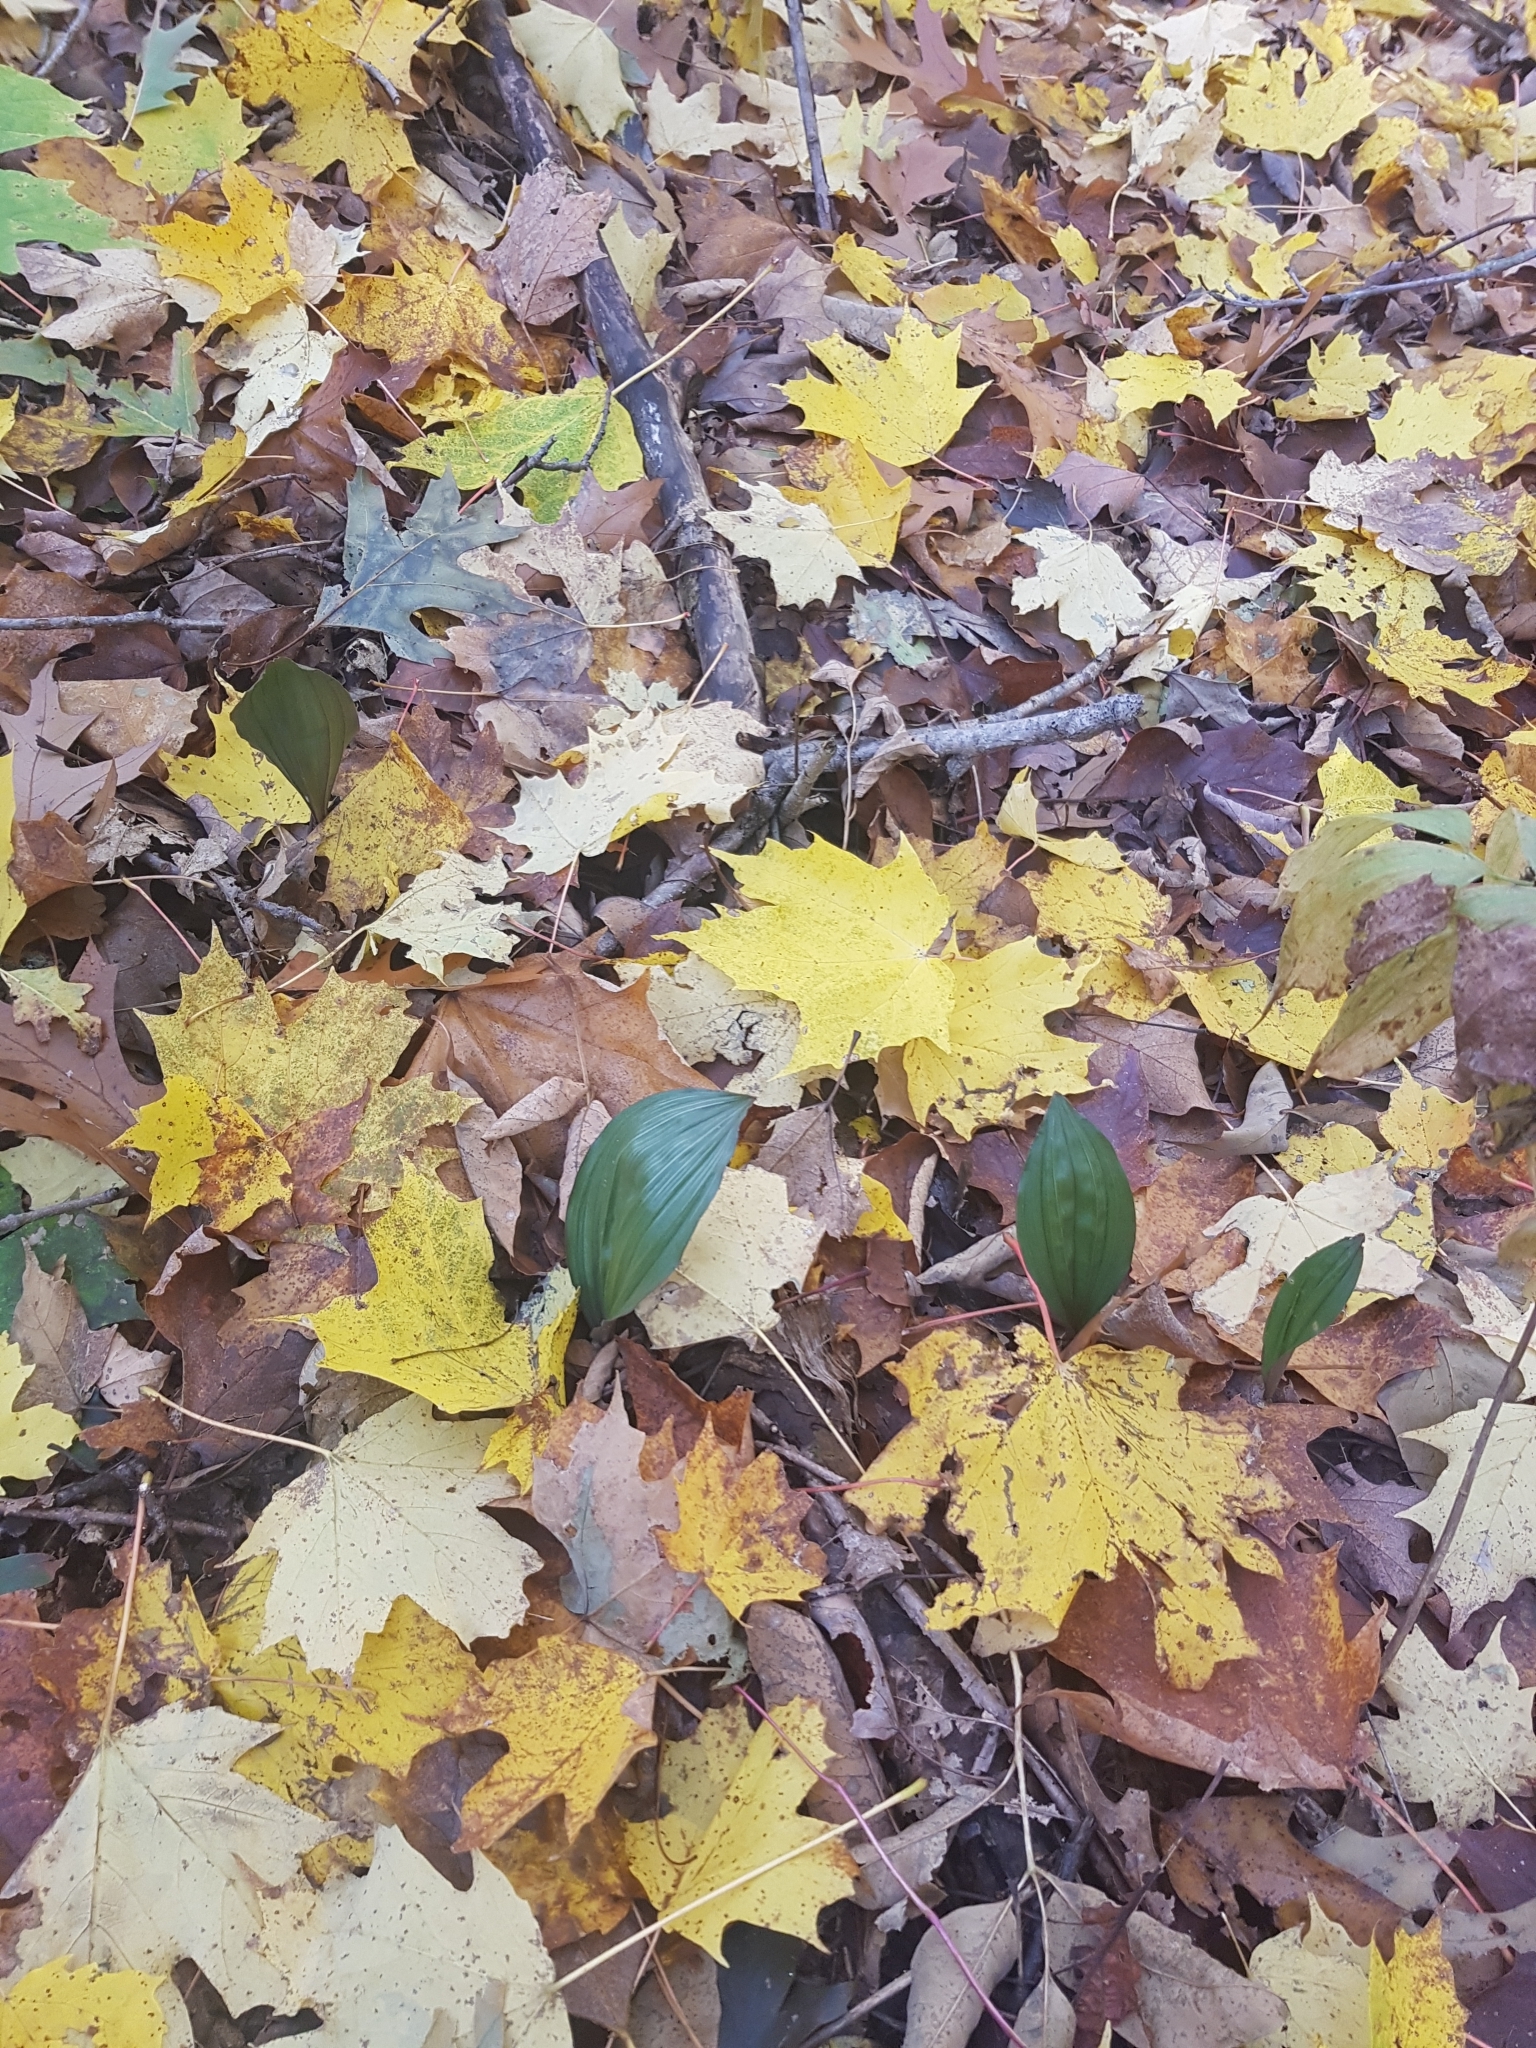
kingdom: Plantae
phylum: Tracheophyta
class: Liliopsida
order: Asparagales
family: Orchidaceae
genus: Aplectrum
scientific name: Aplectrum hyemale
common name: Adam-and-eve
